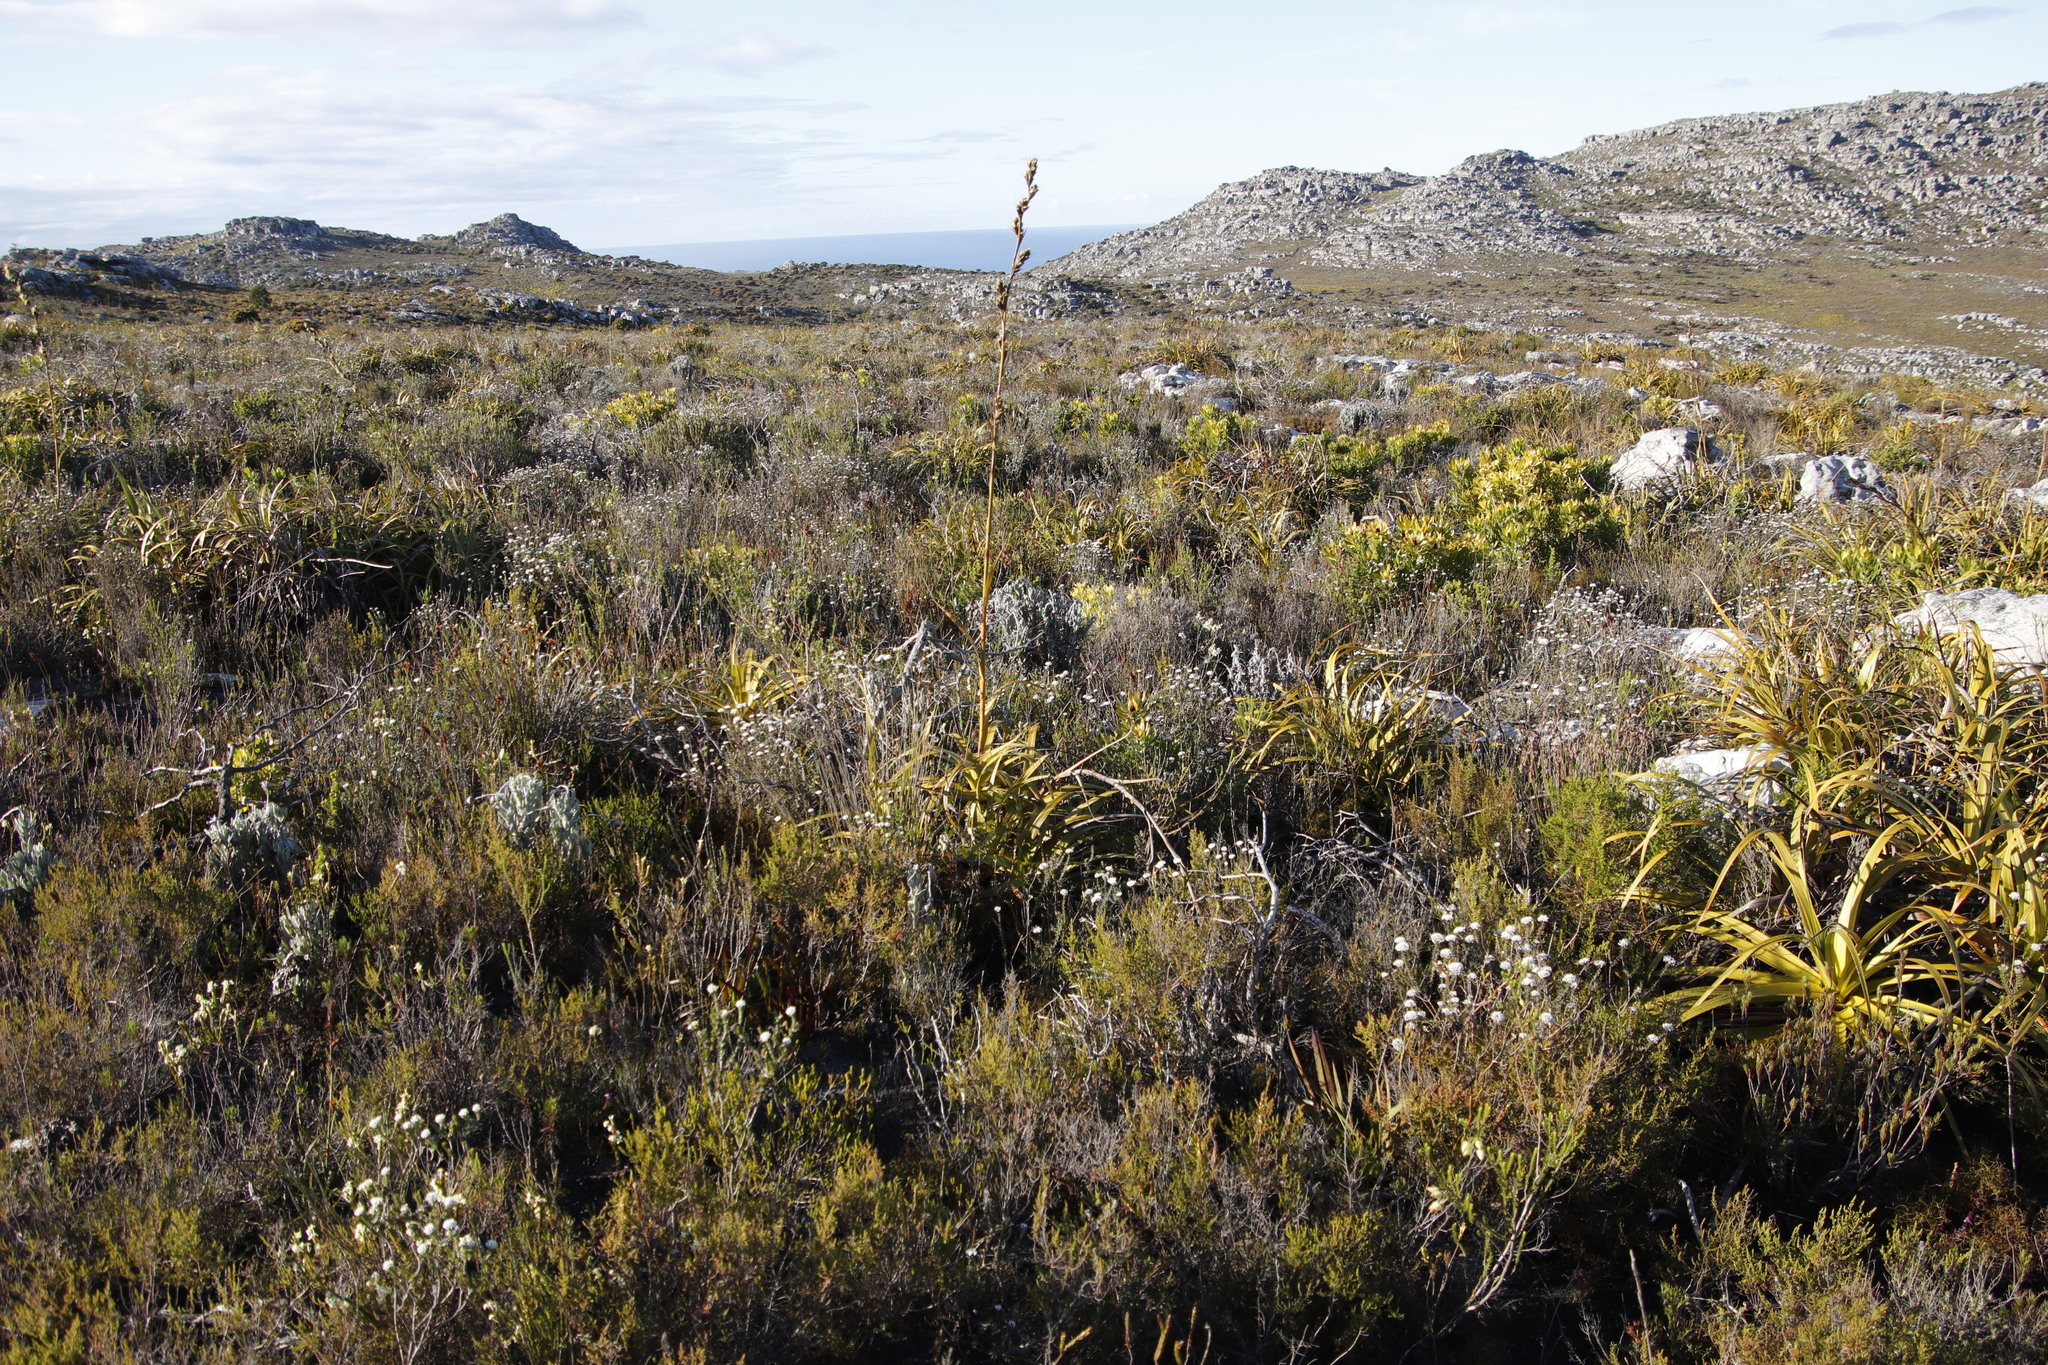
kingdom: Plantae
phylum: Tracheophyta
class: Liliopsida
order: Poales
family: Cyperaceae
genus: Tetraria
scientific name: Tetraria thermalis
